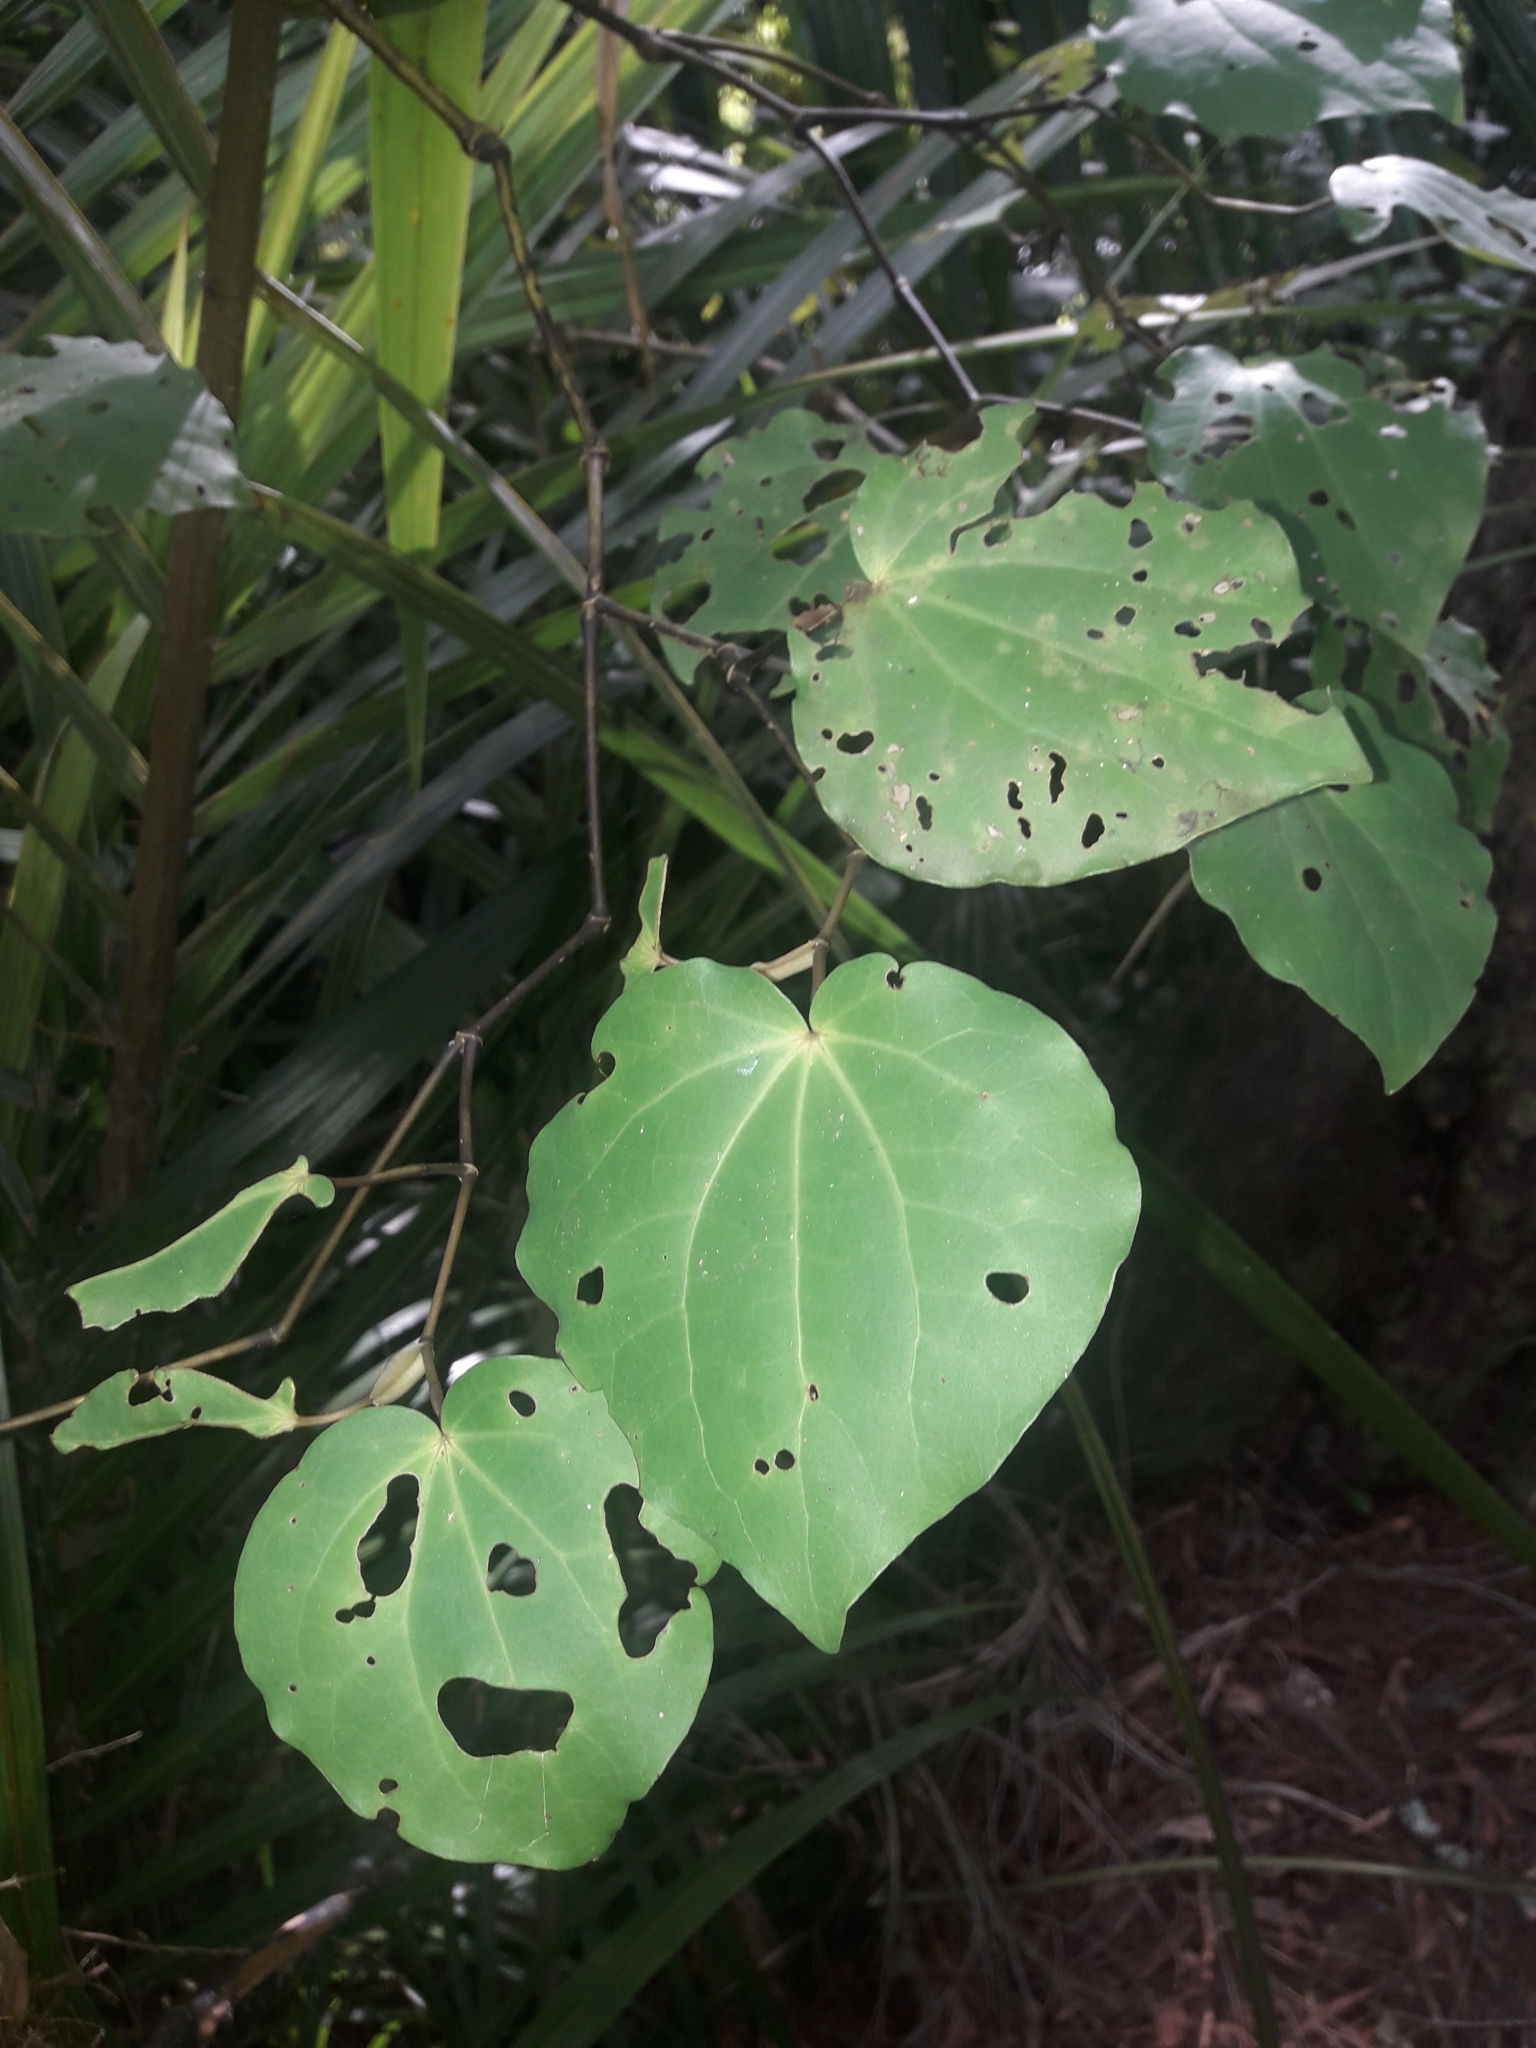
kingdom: Plantae
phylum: Tracheophyta
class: Magnoliopsida
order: Piperales
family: Piperaceae
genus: Macropiper
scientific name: Macropiper excelsum
